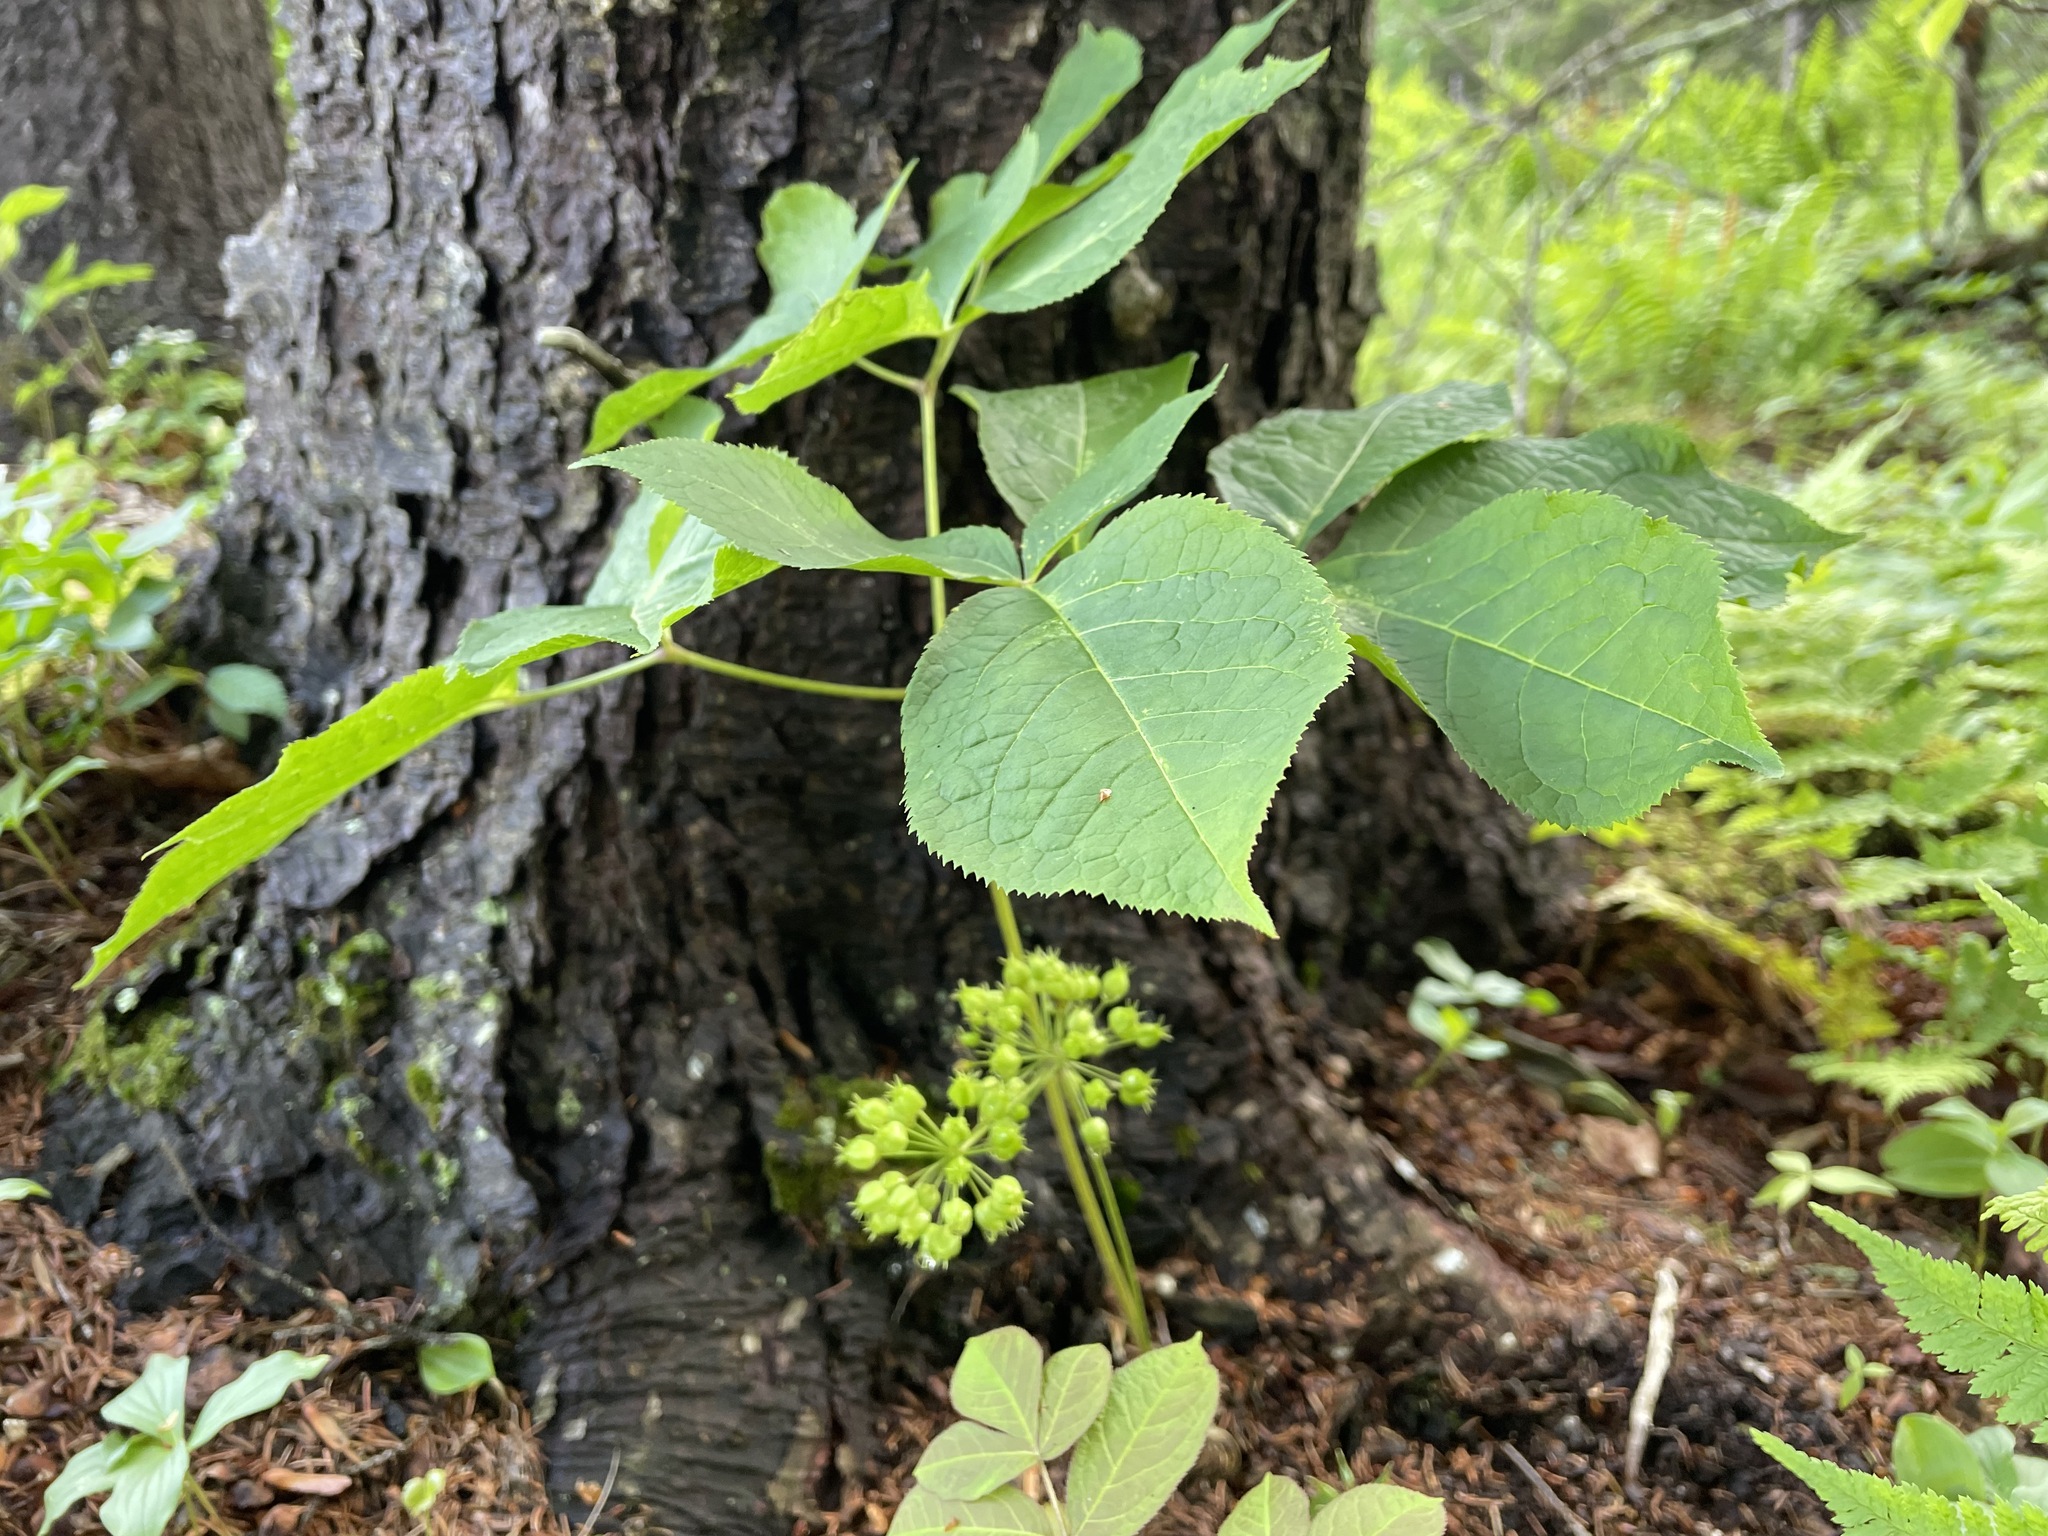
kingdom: Plantae
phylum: Tracheophyta
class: Magnoliopsida
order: Apiales
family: Araliaceae
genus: Aralia
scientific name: Aralia nudicaulis
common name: Wild sarsaparilla
